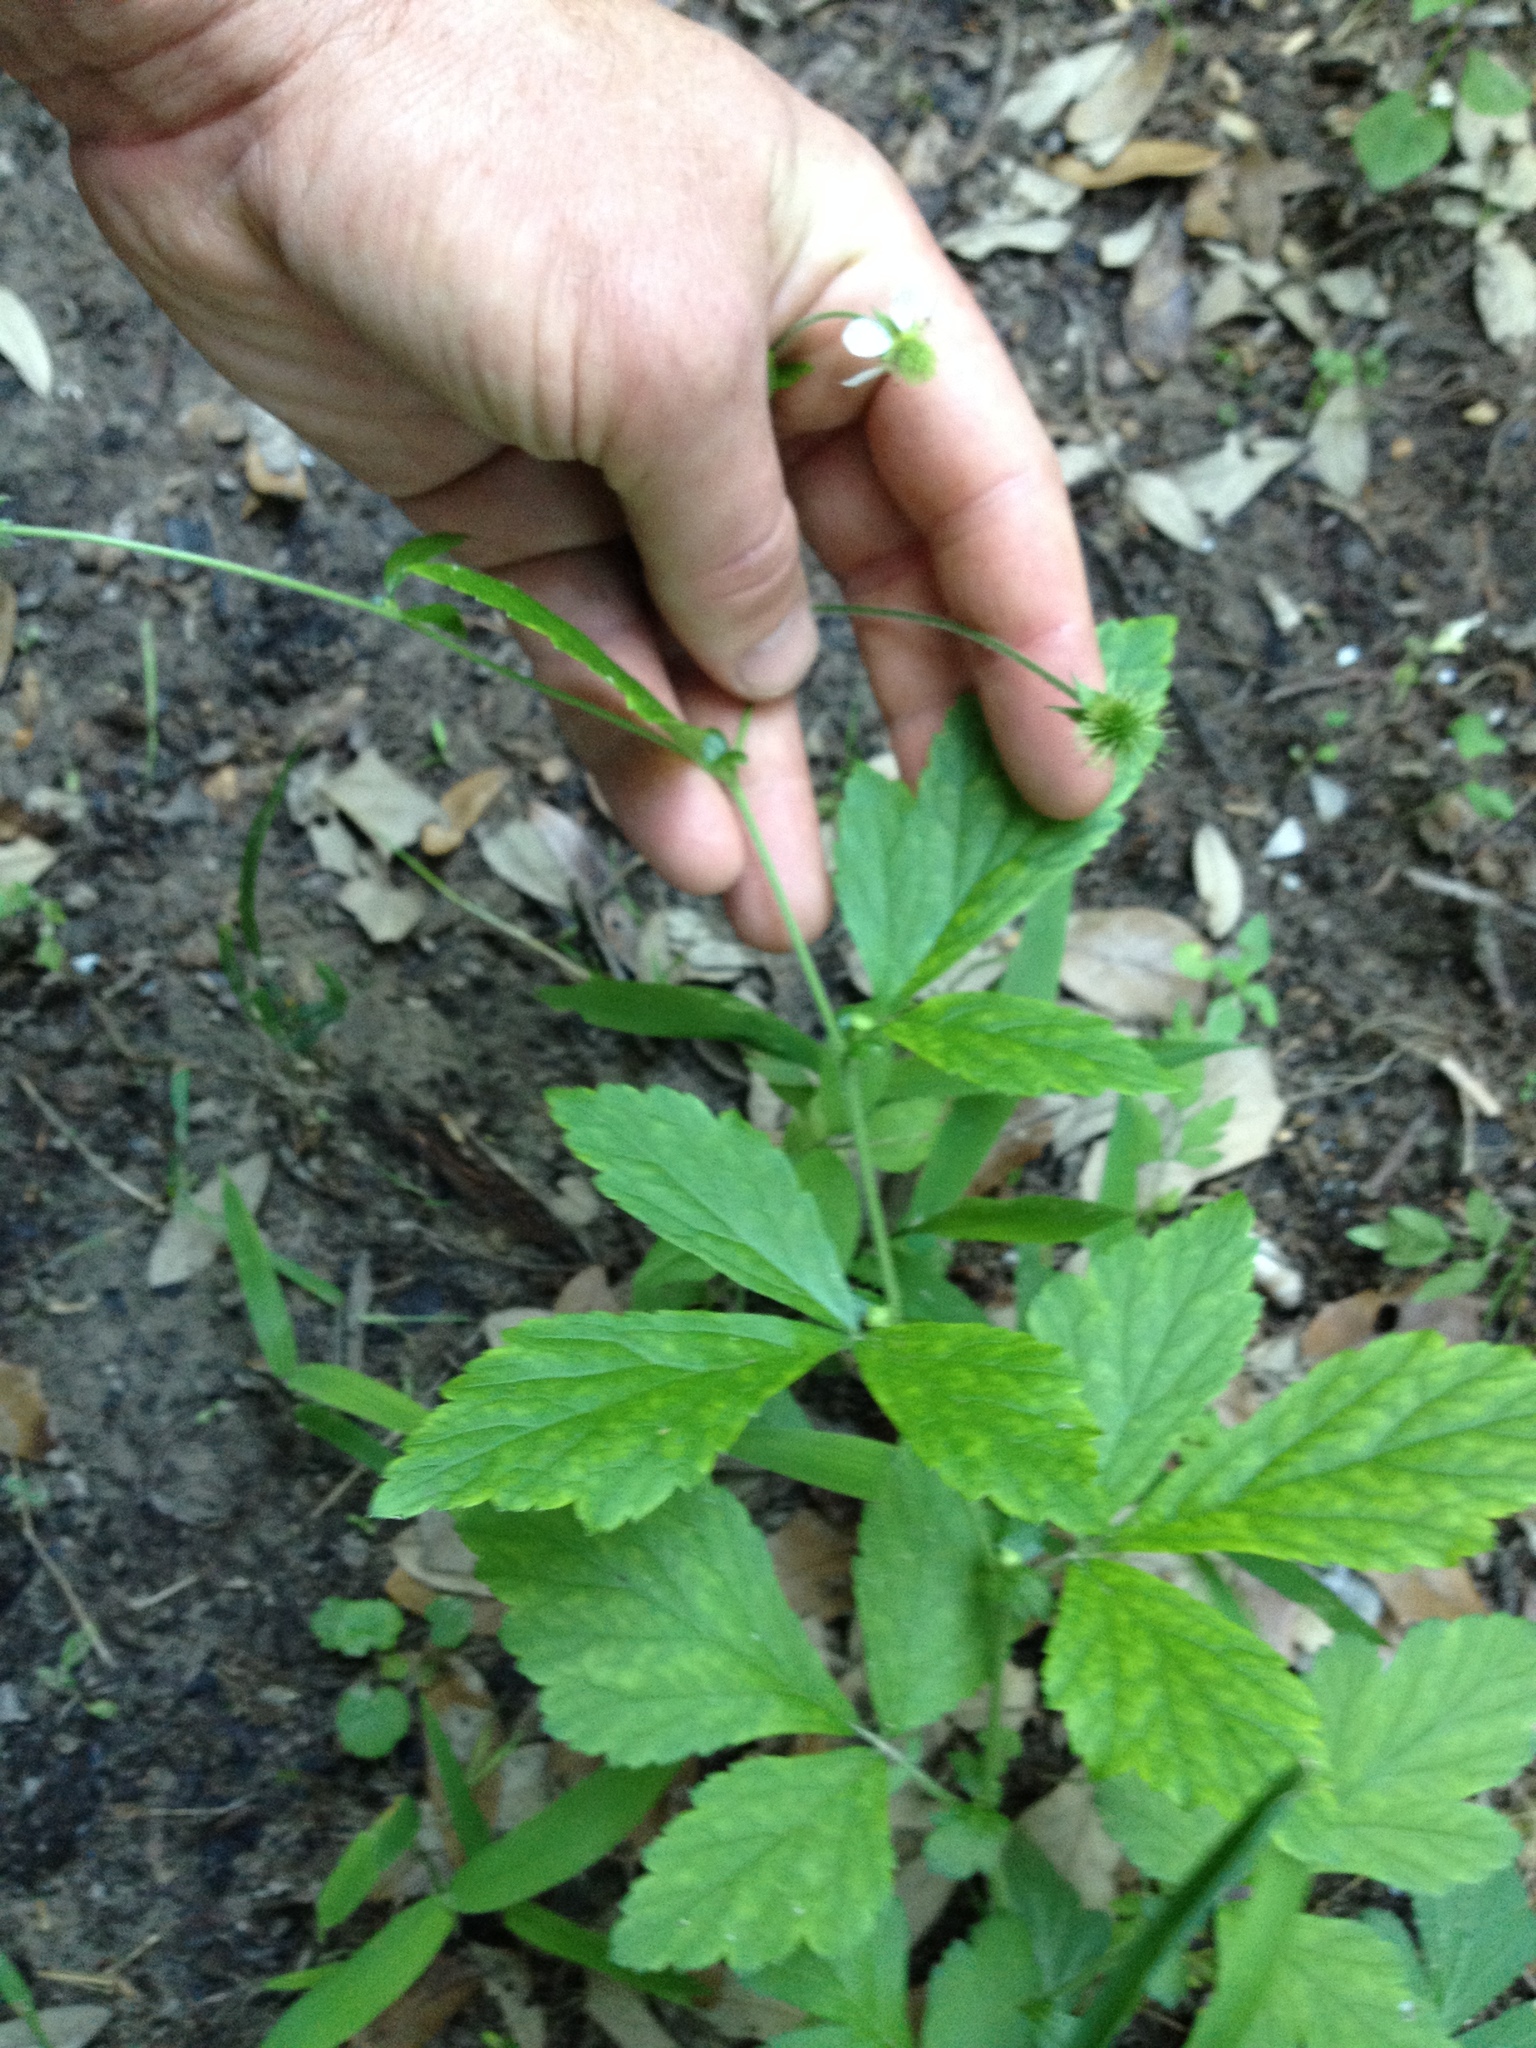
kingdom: Plantae
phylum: Tracheophyta
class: Magnoliopsida
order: Rosales
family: Rosaceae
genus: Geum
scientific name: Geum canadense
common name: White avens
